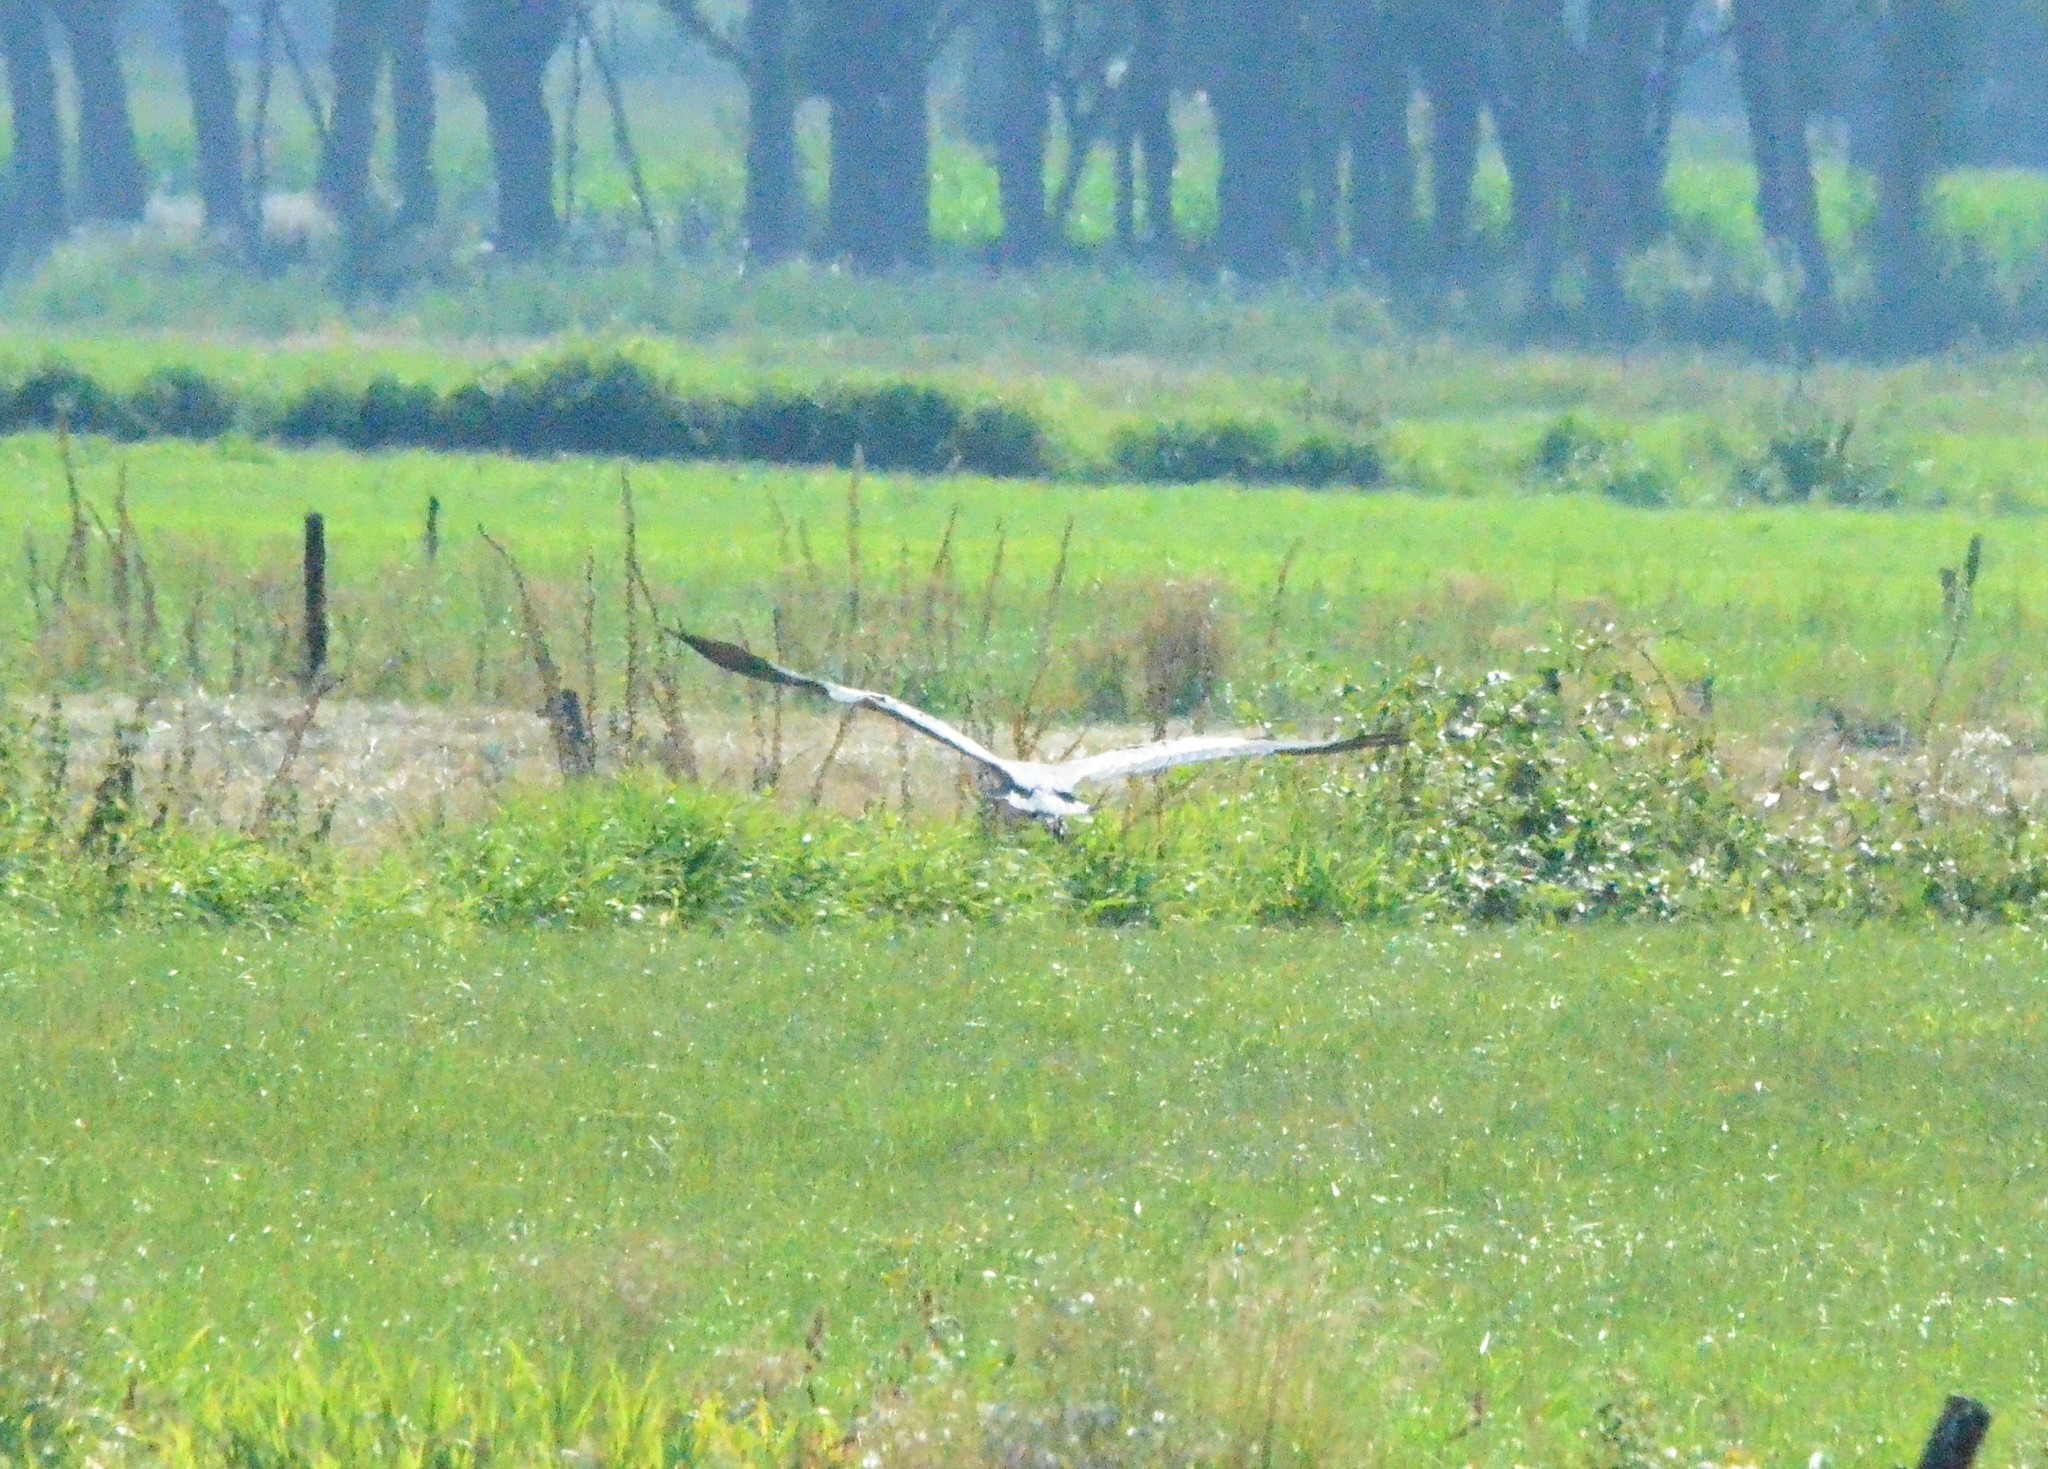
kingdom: Animalia
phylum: Chordata
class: Aves
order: Pelecaniformes
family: Ardeidae
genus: Ardea
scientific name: Ardea cinerea
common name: Grey heron
